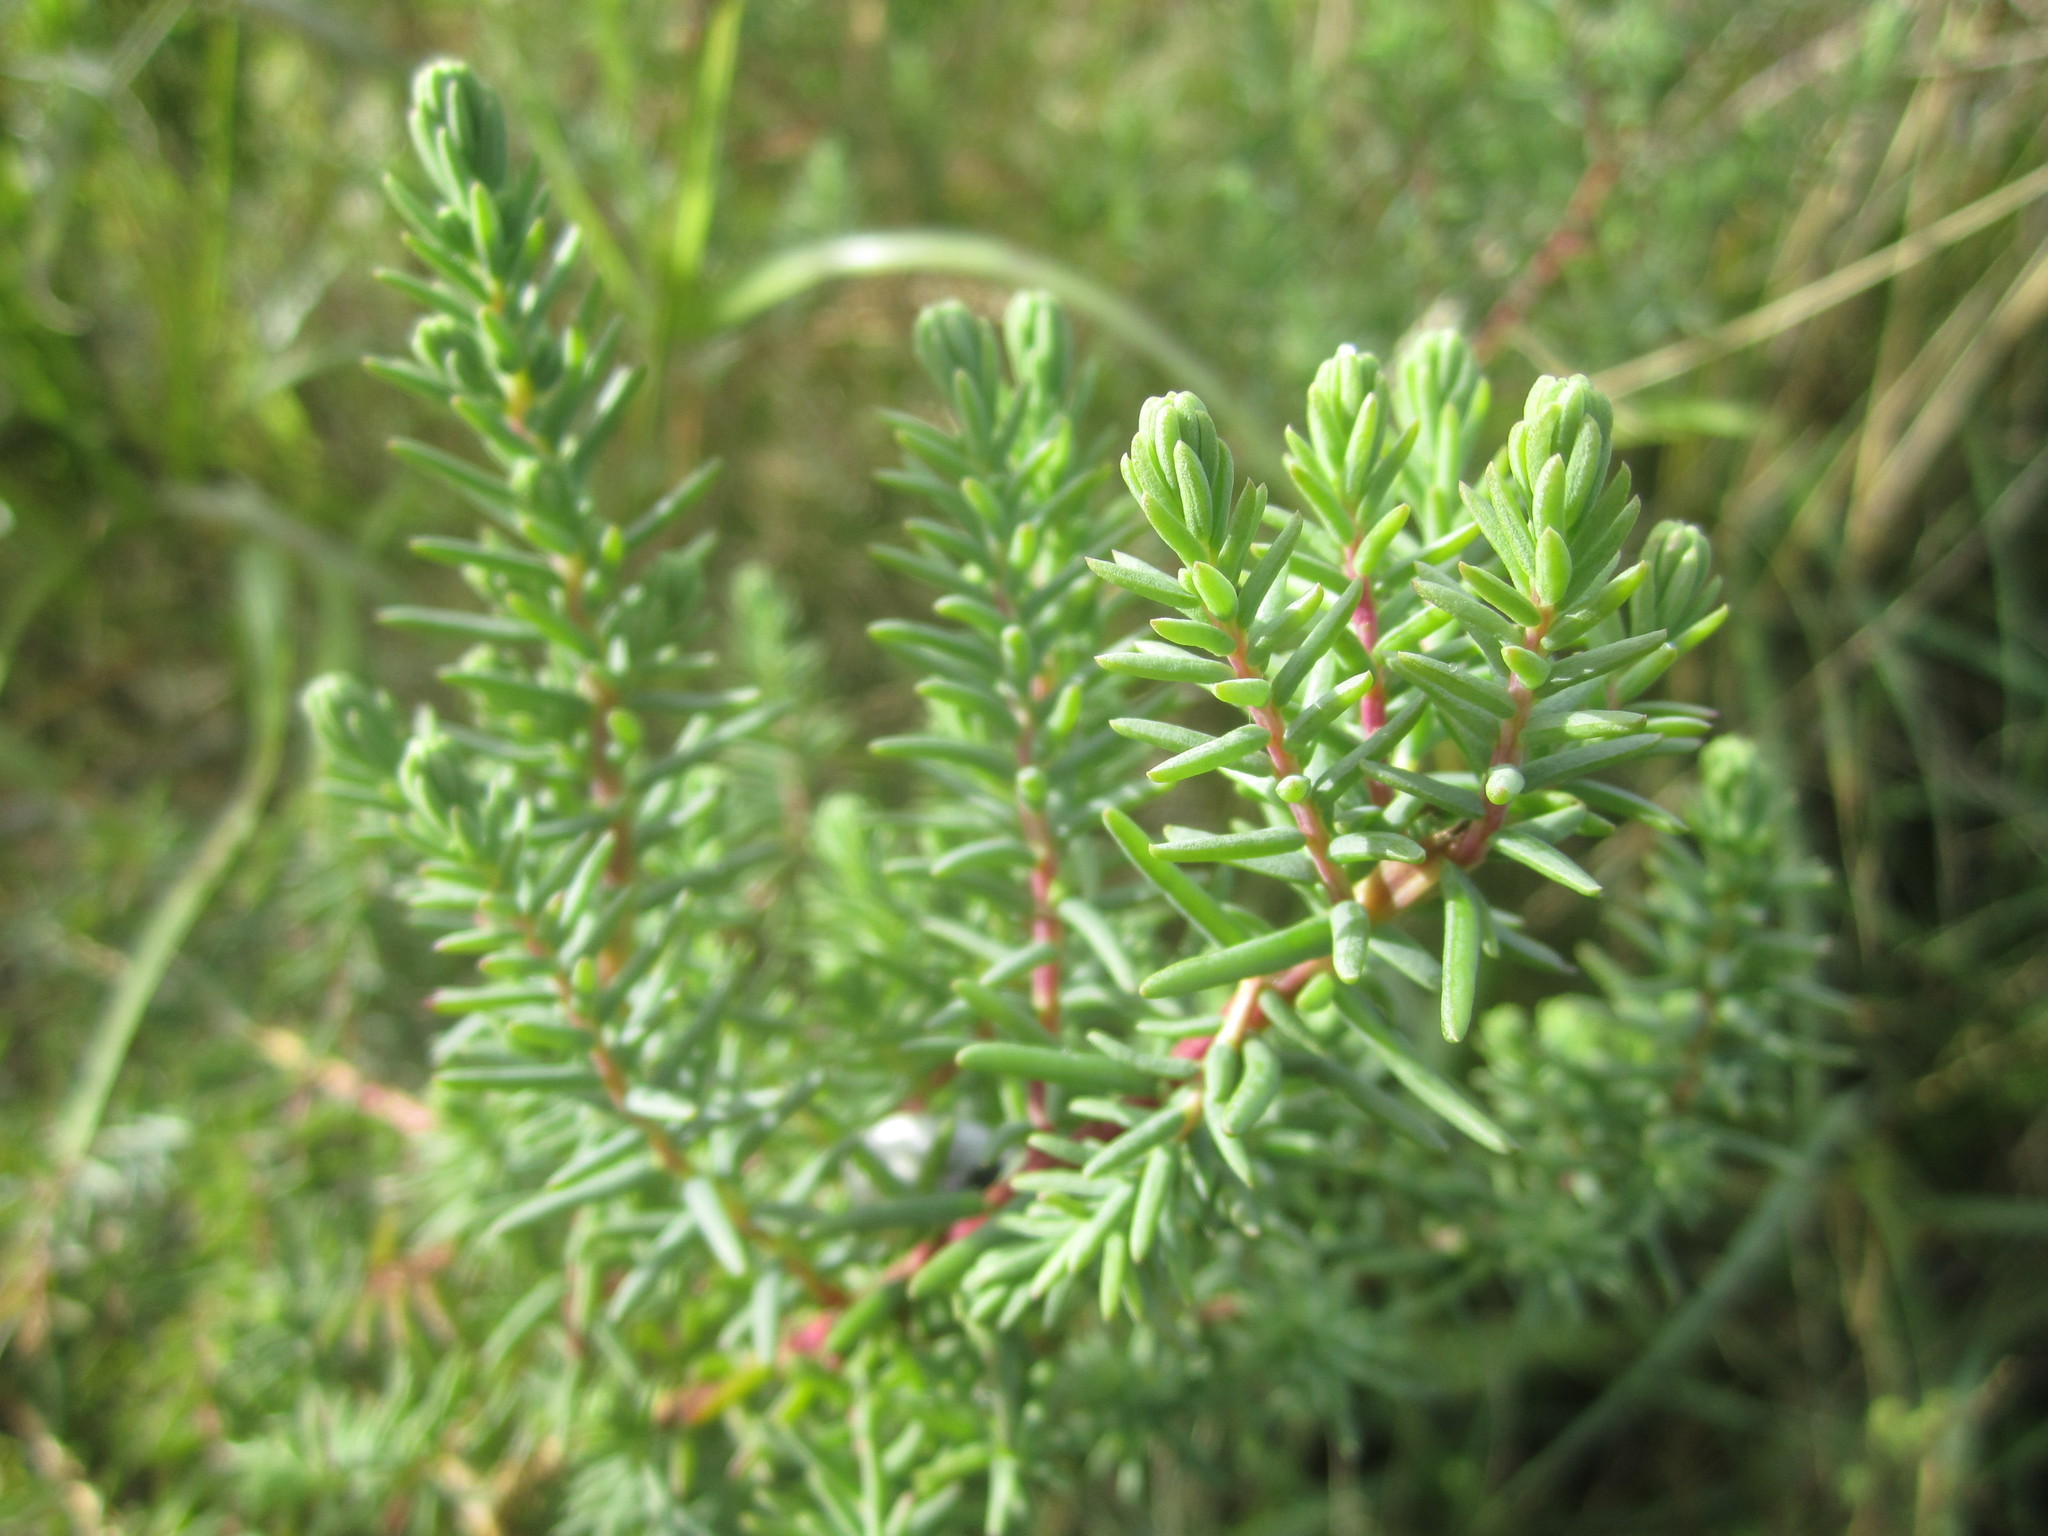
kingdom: Plantae
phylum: Tracheophyta
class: Magnoliopsida
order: Caryophyllales
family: Amaranthaceae
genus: Suaeda
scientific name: Suaeda vera
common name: Shrubby sea-blite
